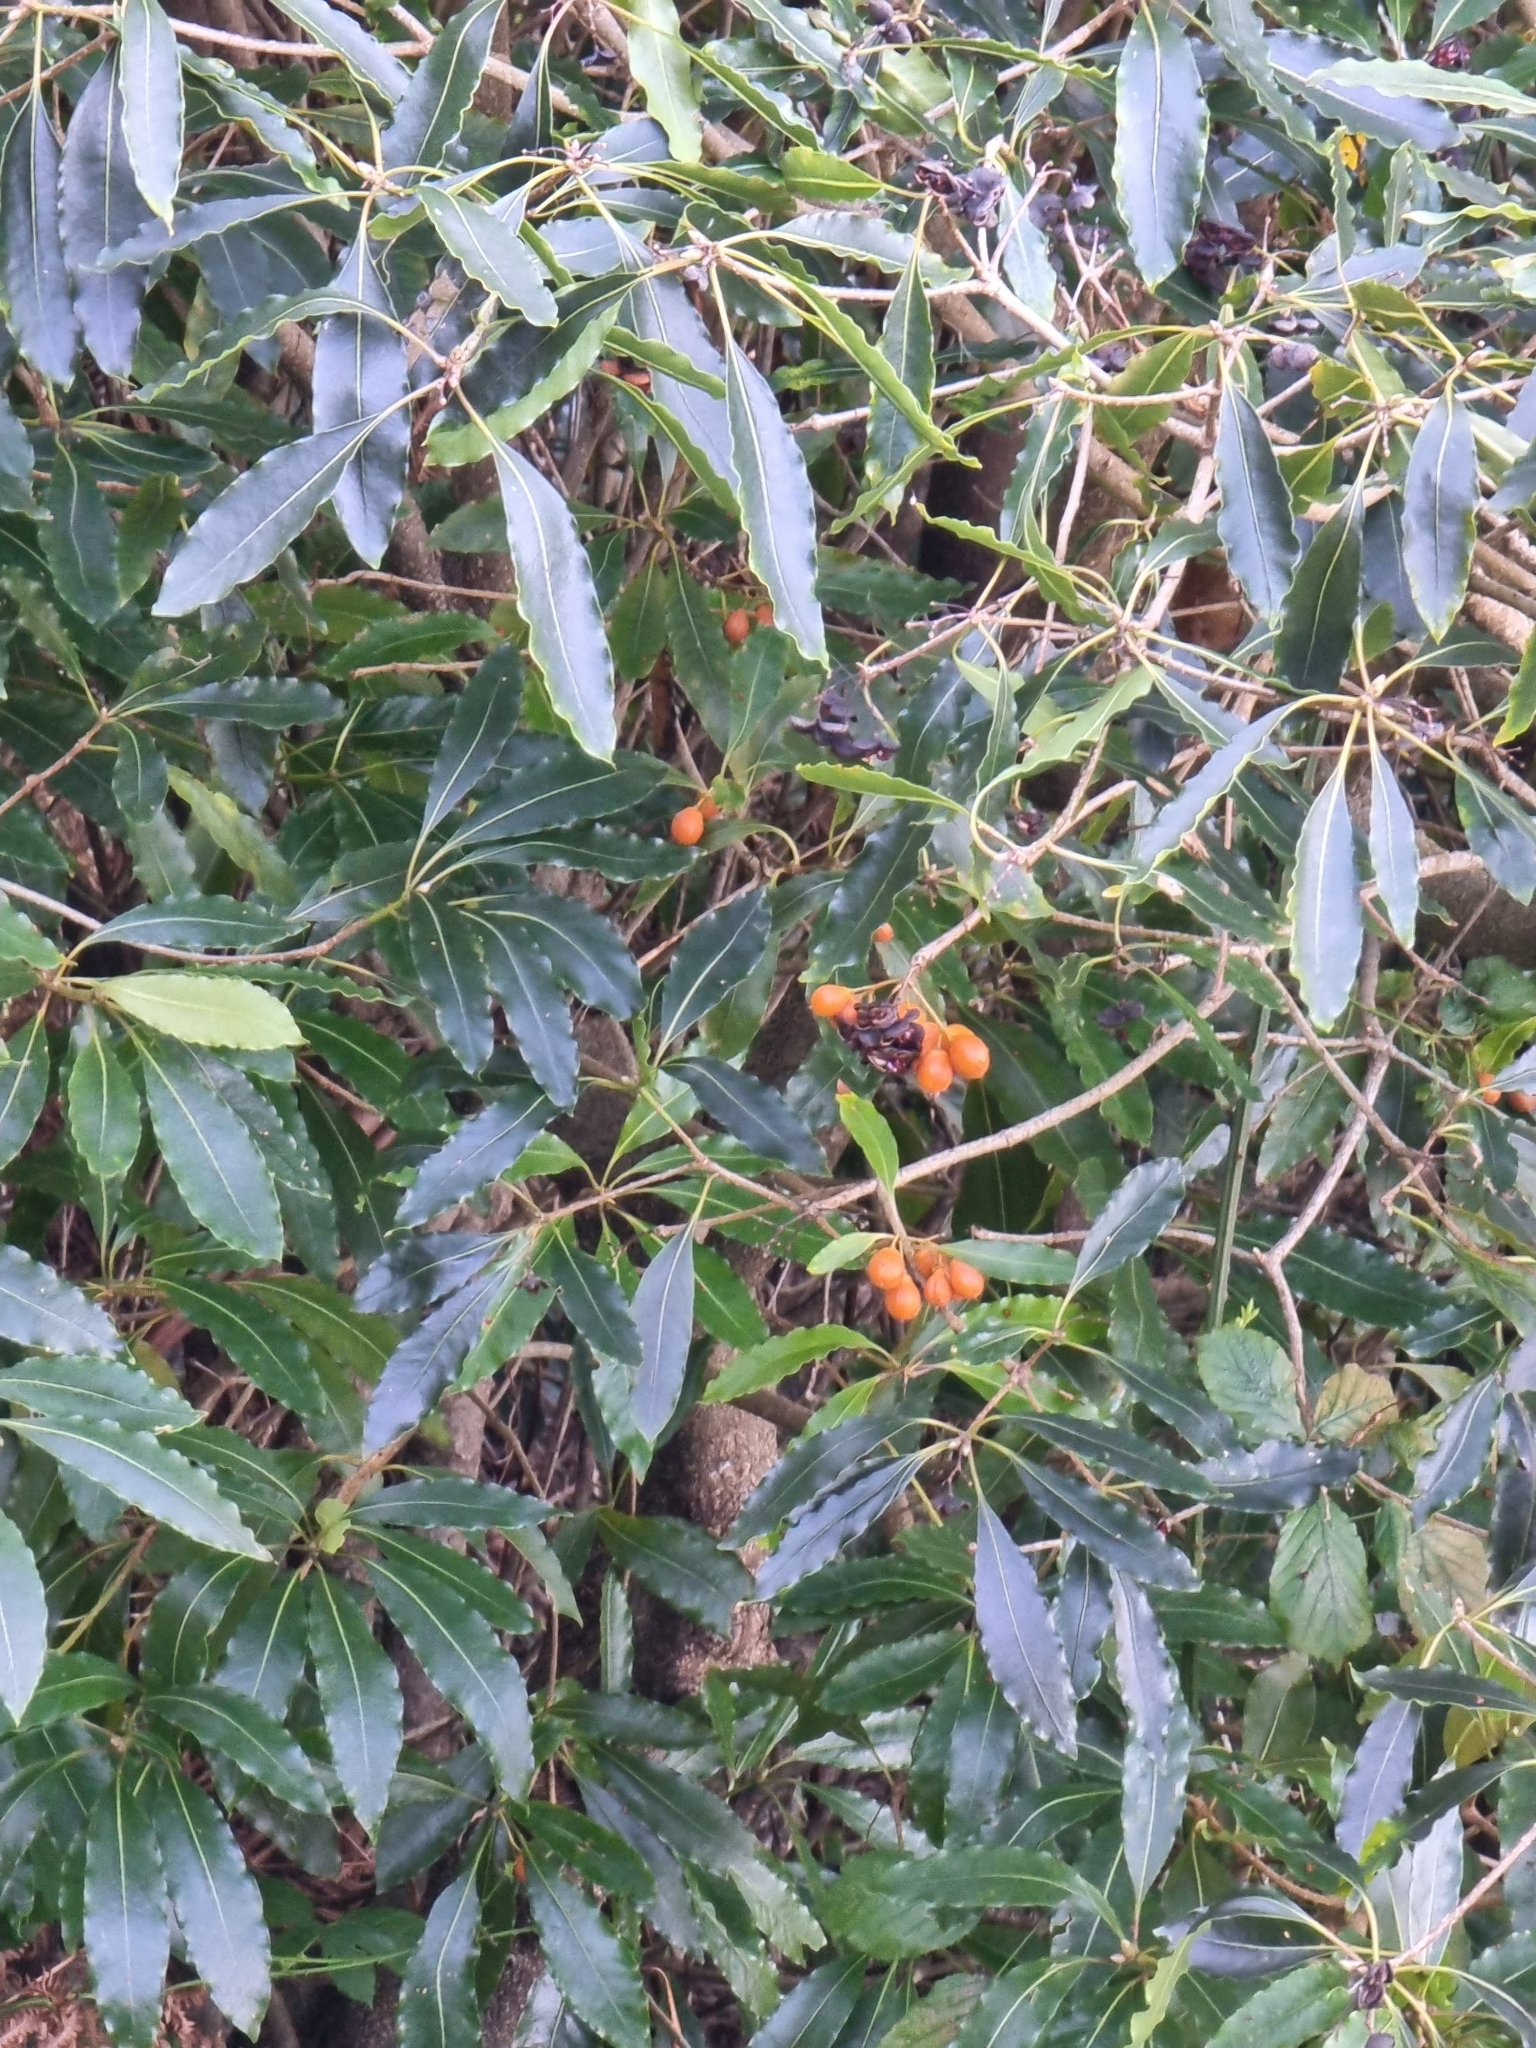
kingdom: Plantae
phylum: Tracheophyta
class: Magnoliopsida
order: Apiales
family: Pittosporaceae
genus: Pittosporum
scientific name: Pittosporum undulatum
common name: Australian cheesewood
